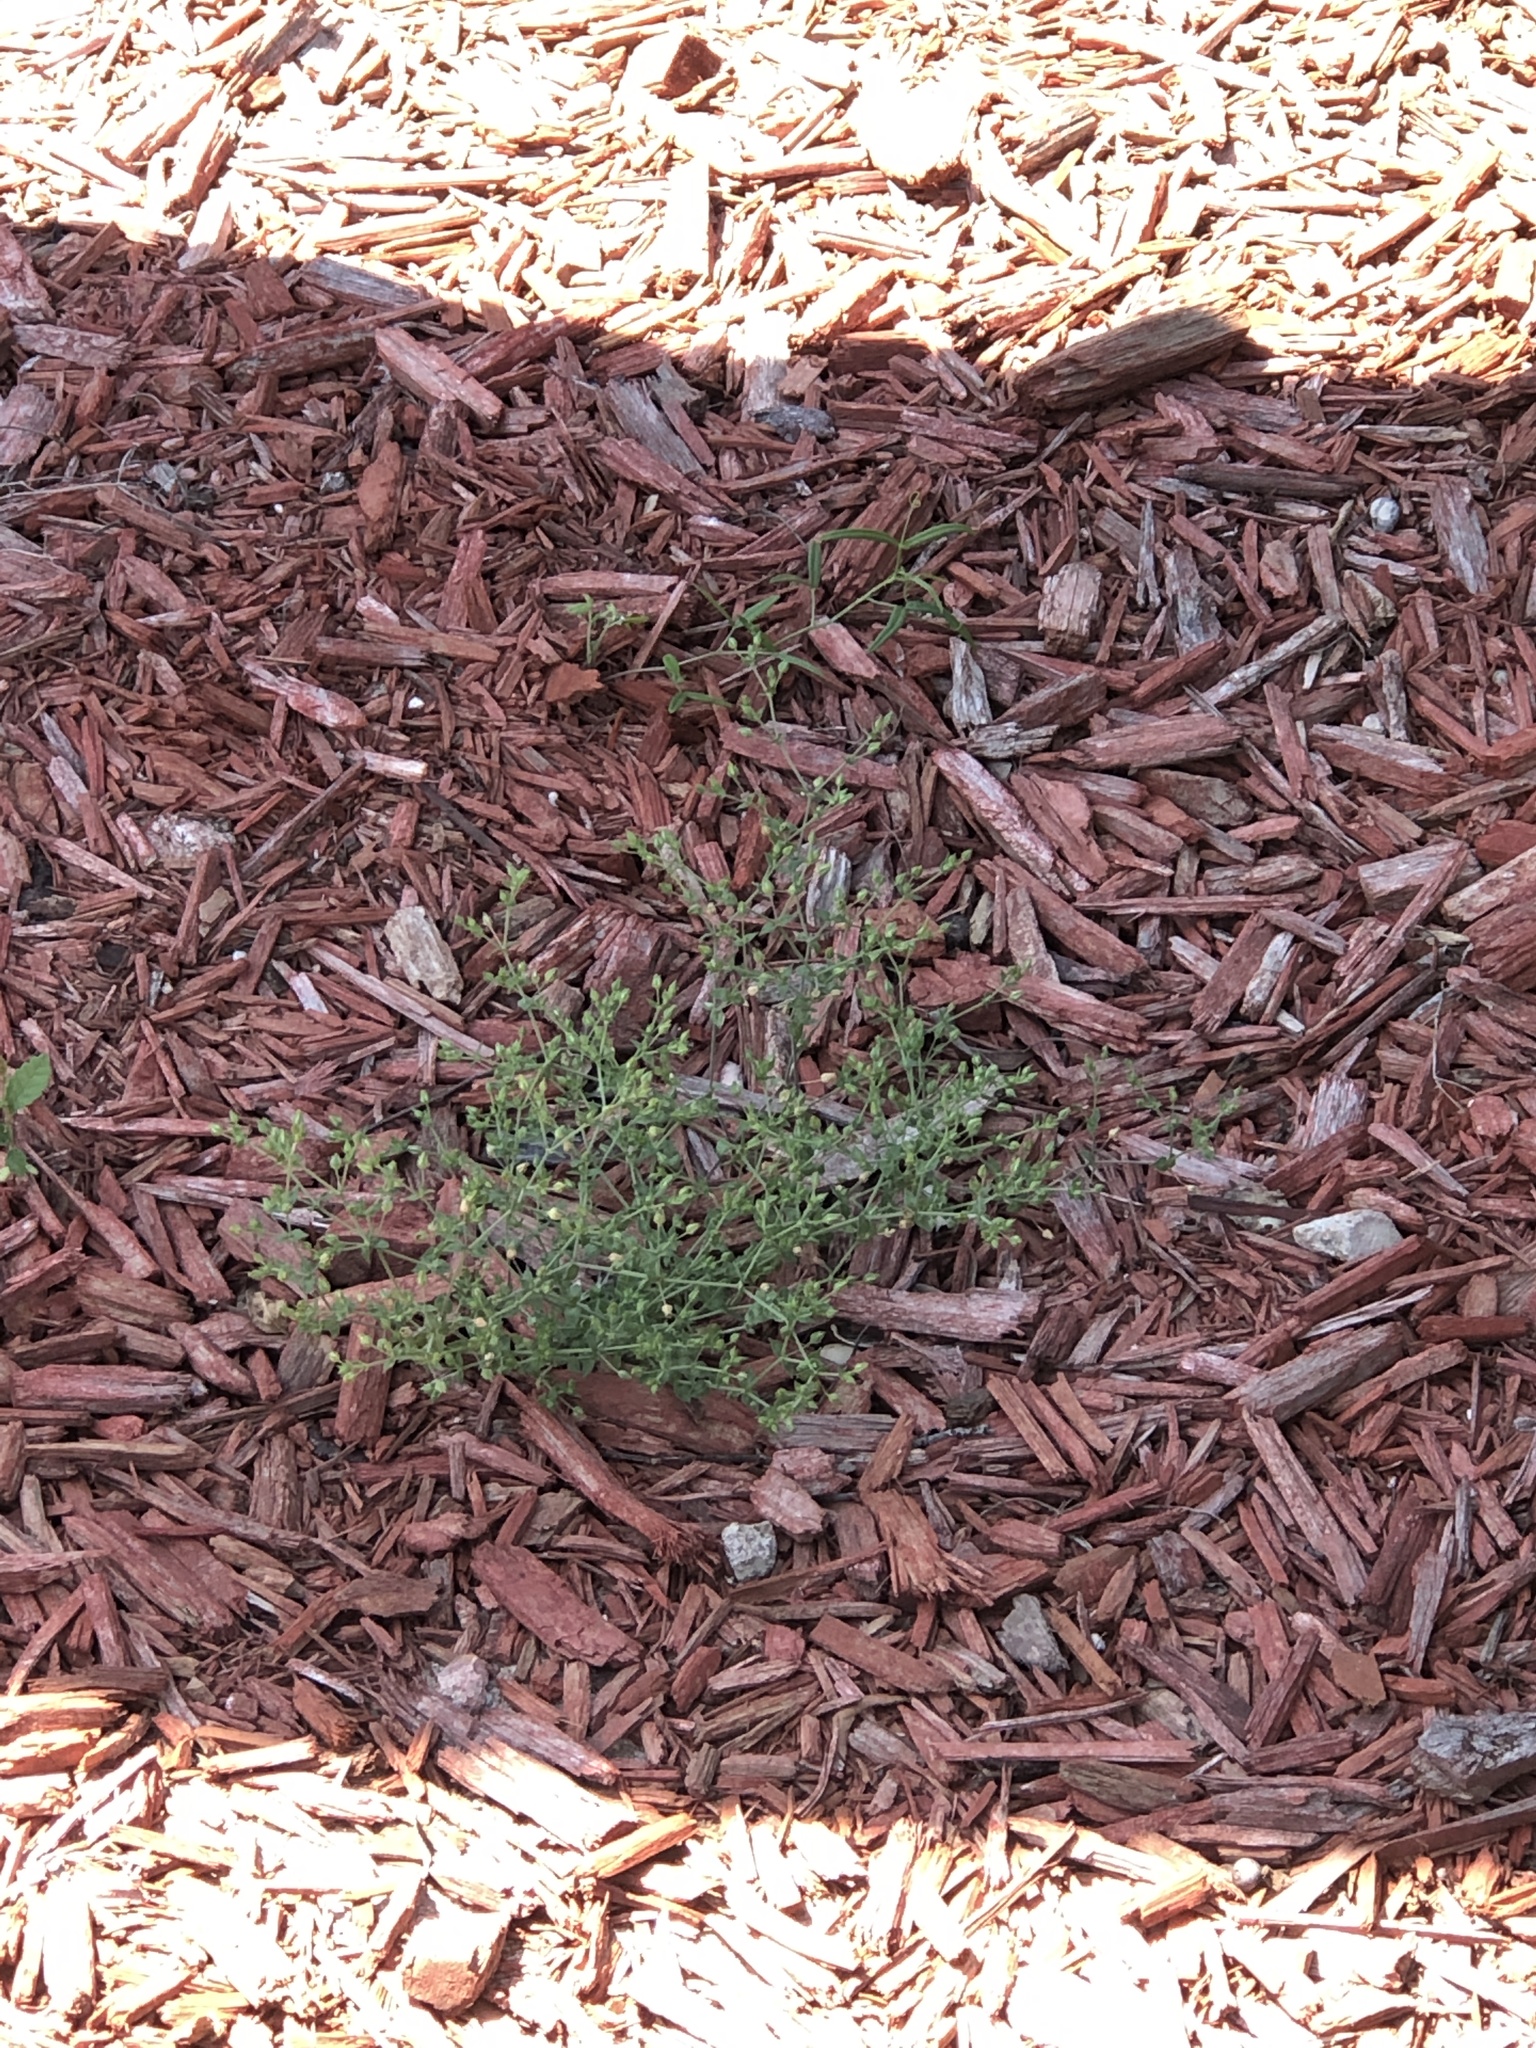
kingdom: Plantae
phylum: Tracheophyta
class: Magnoliopsida
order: Caryophyllales
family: Caryophyllaceae
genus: Arenaria
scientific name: Arenaria serpyllifolia
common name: Thyme-leaved sandwort
